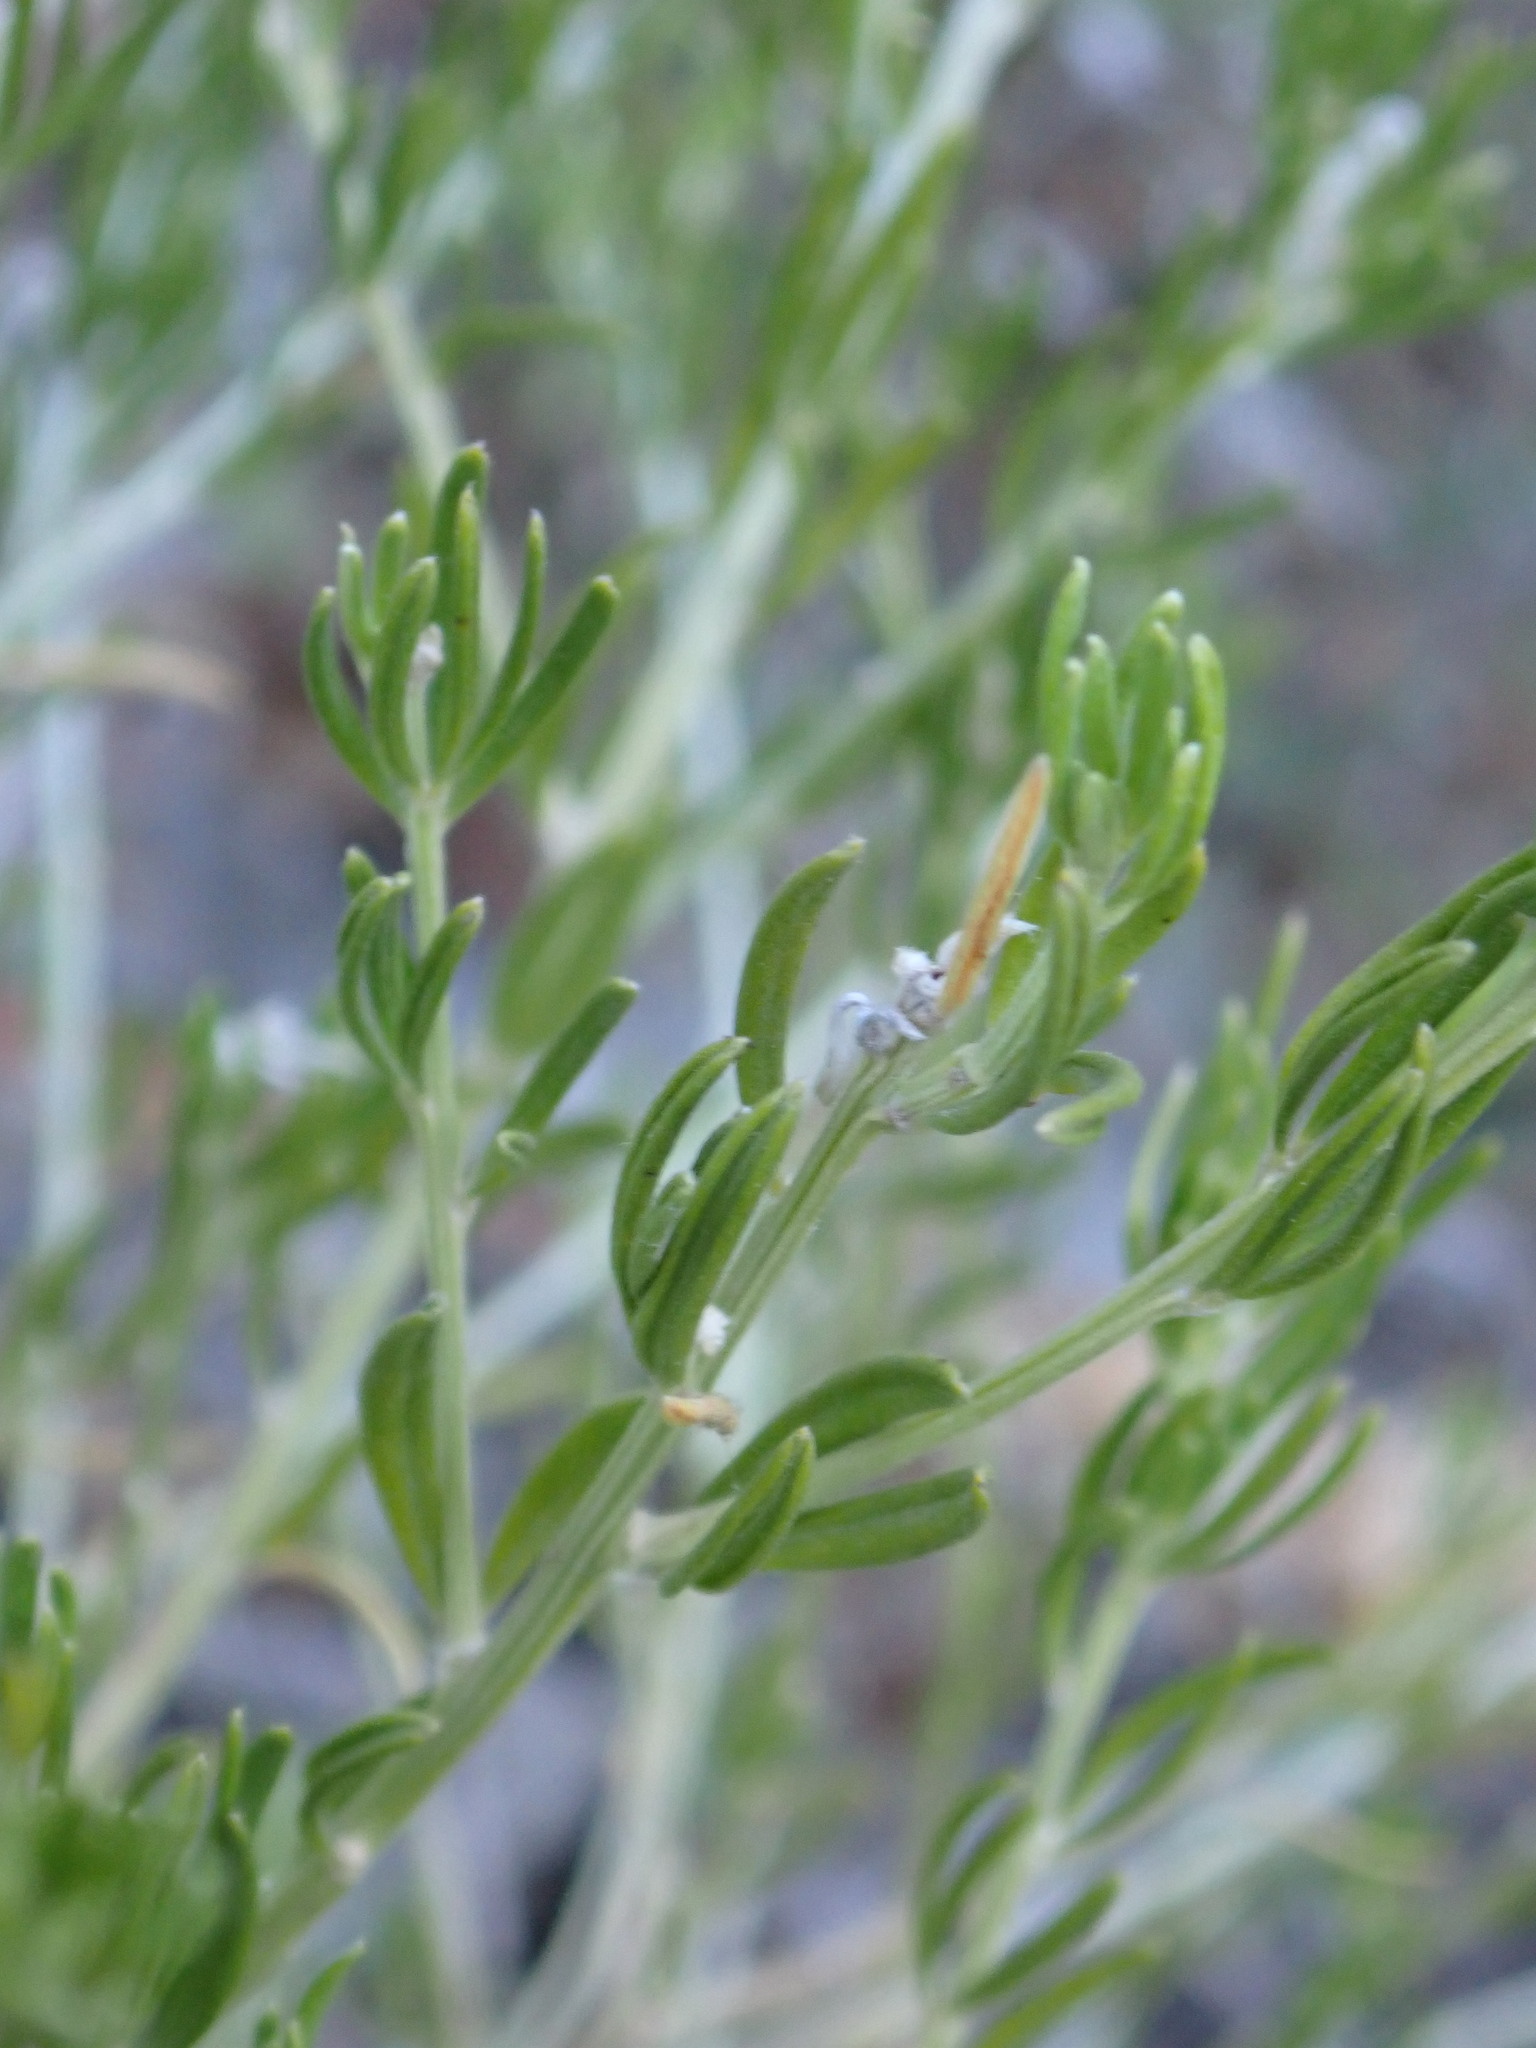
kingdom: Plantae
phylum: Tracheophyta
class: Magnoliopsida
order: Fabales
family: Fabaceae
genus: Genista
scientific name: Genista linifolia
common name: Mediterranean broom
